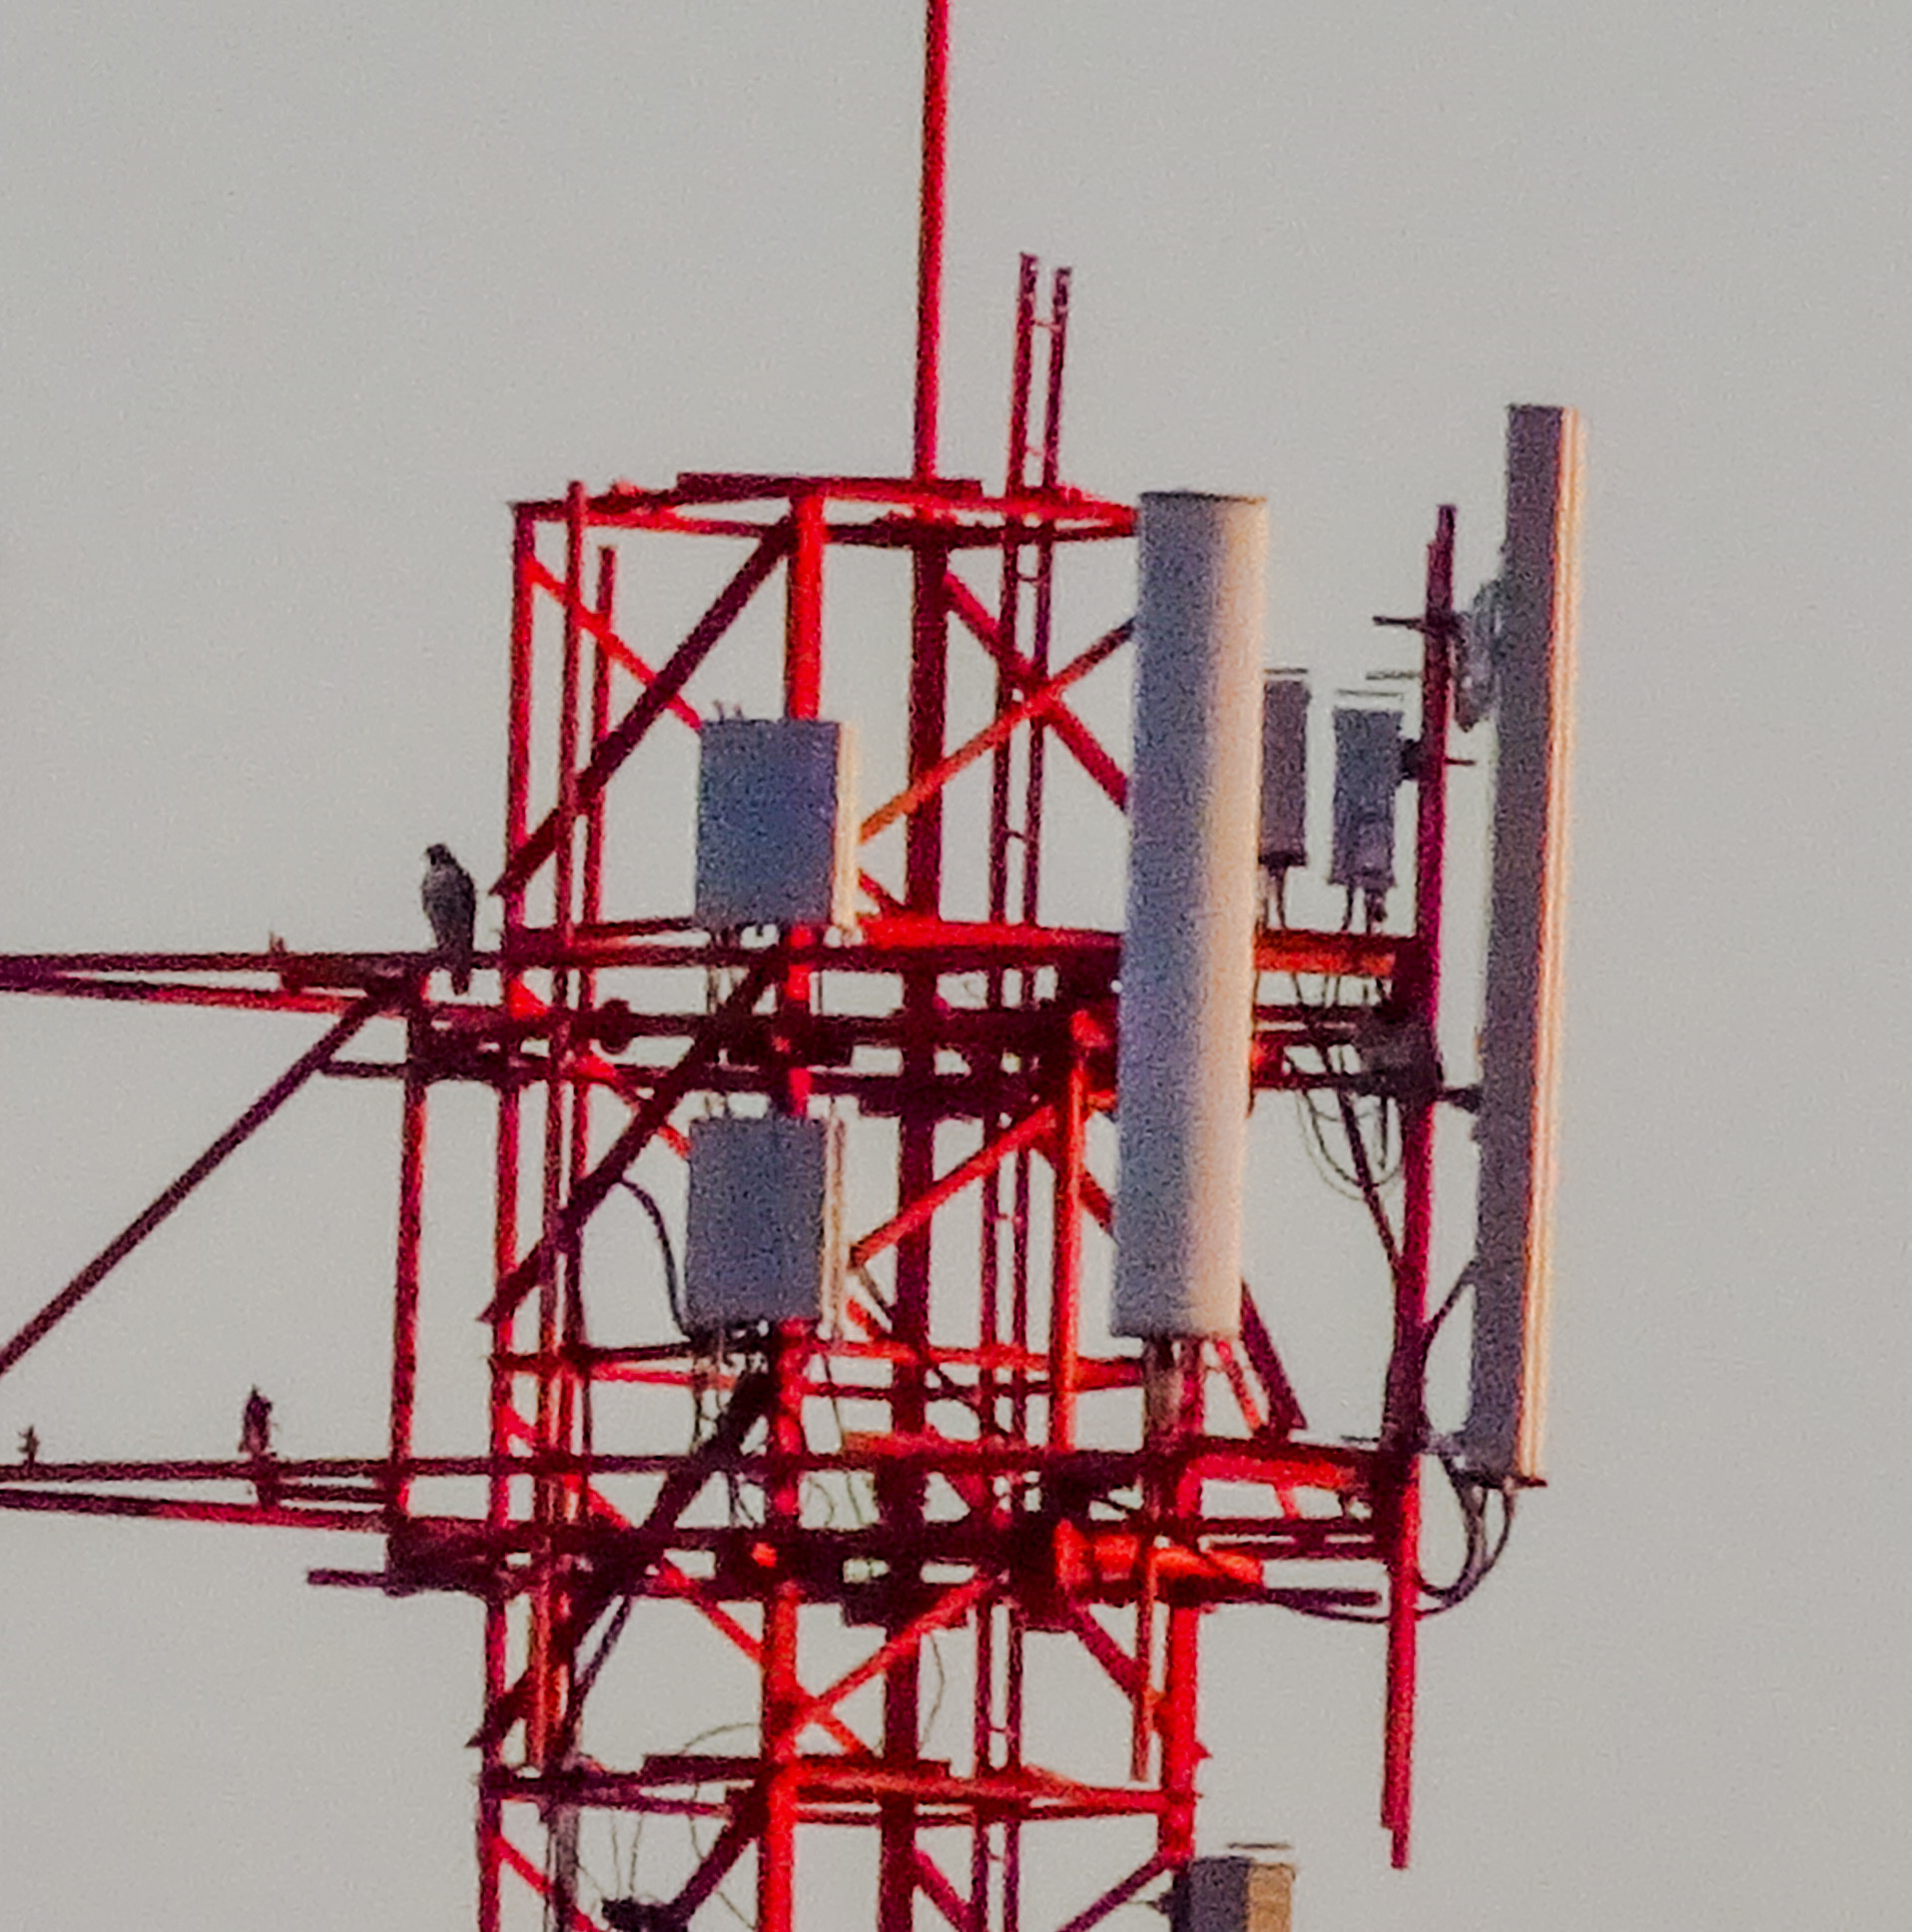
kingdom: Animalia
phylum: Chordata
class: Aves
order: Falconiformes
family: Falconidae
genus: Falco
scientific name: Falco peregrinus
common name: Peregrine falcon
